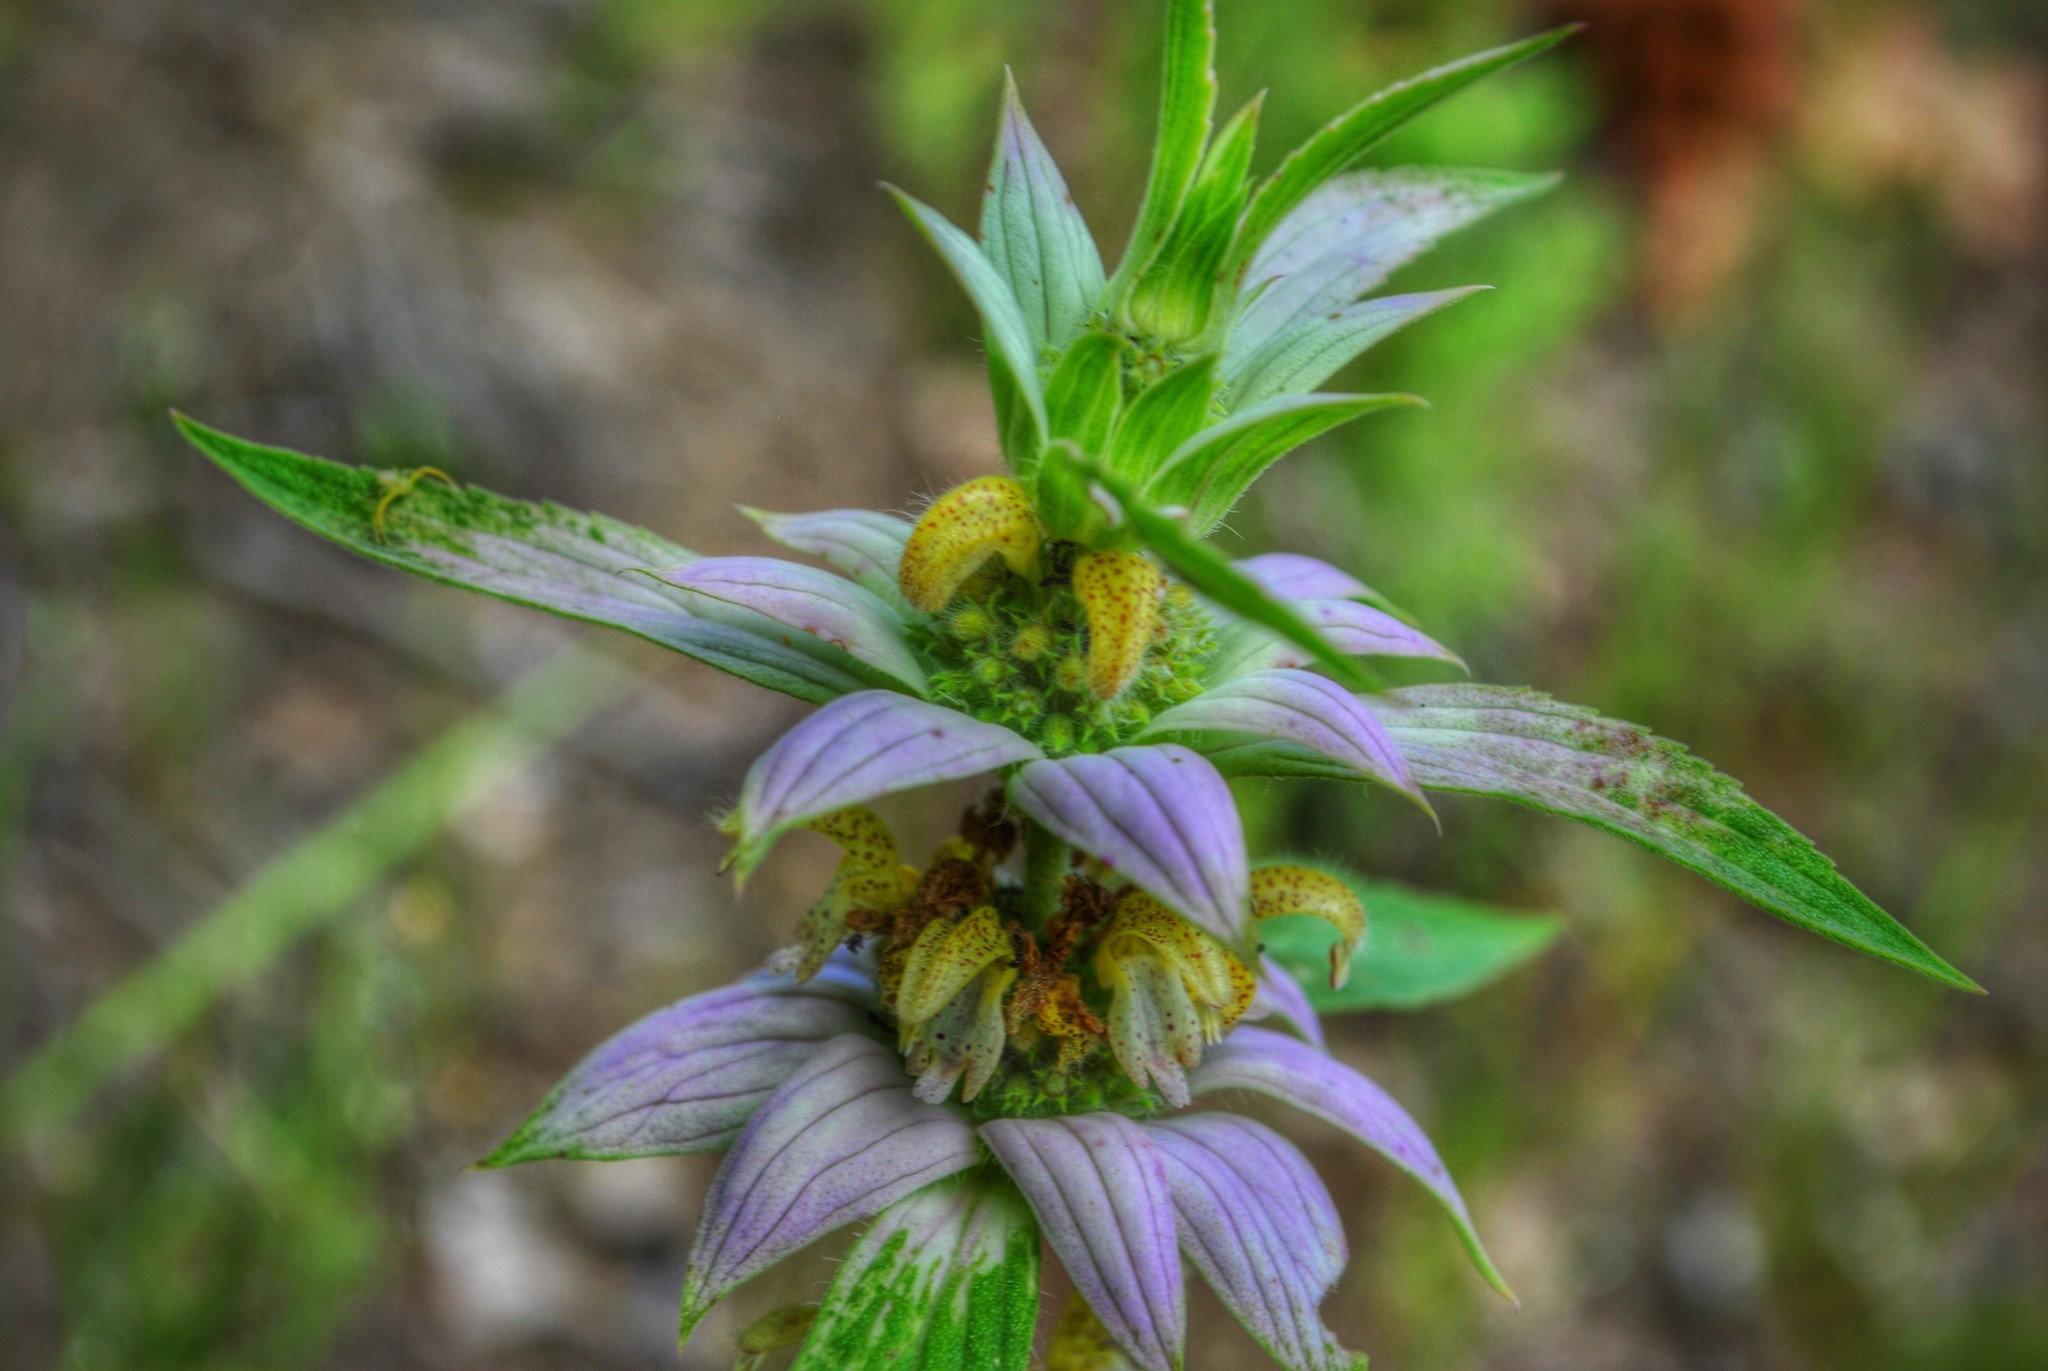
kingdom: Plantae
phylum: Tracheophyta
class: Magnoliopsida
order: Lamiales
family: Lamiaceae
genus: Monarda
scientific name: Monarda punctata
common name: Dotted monarda
